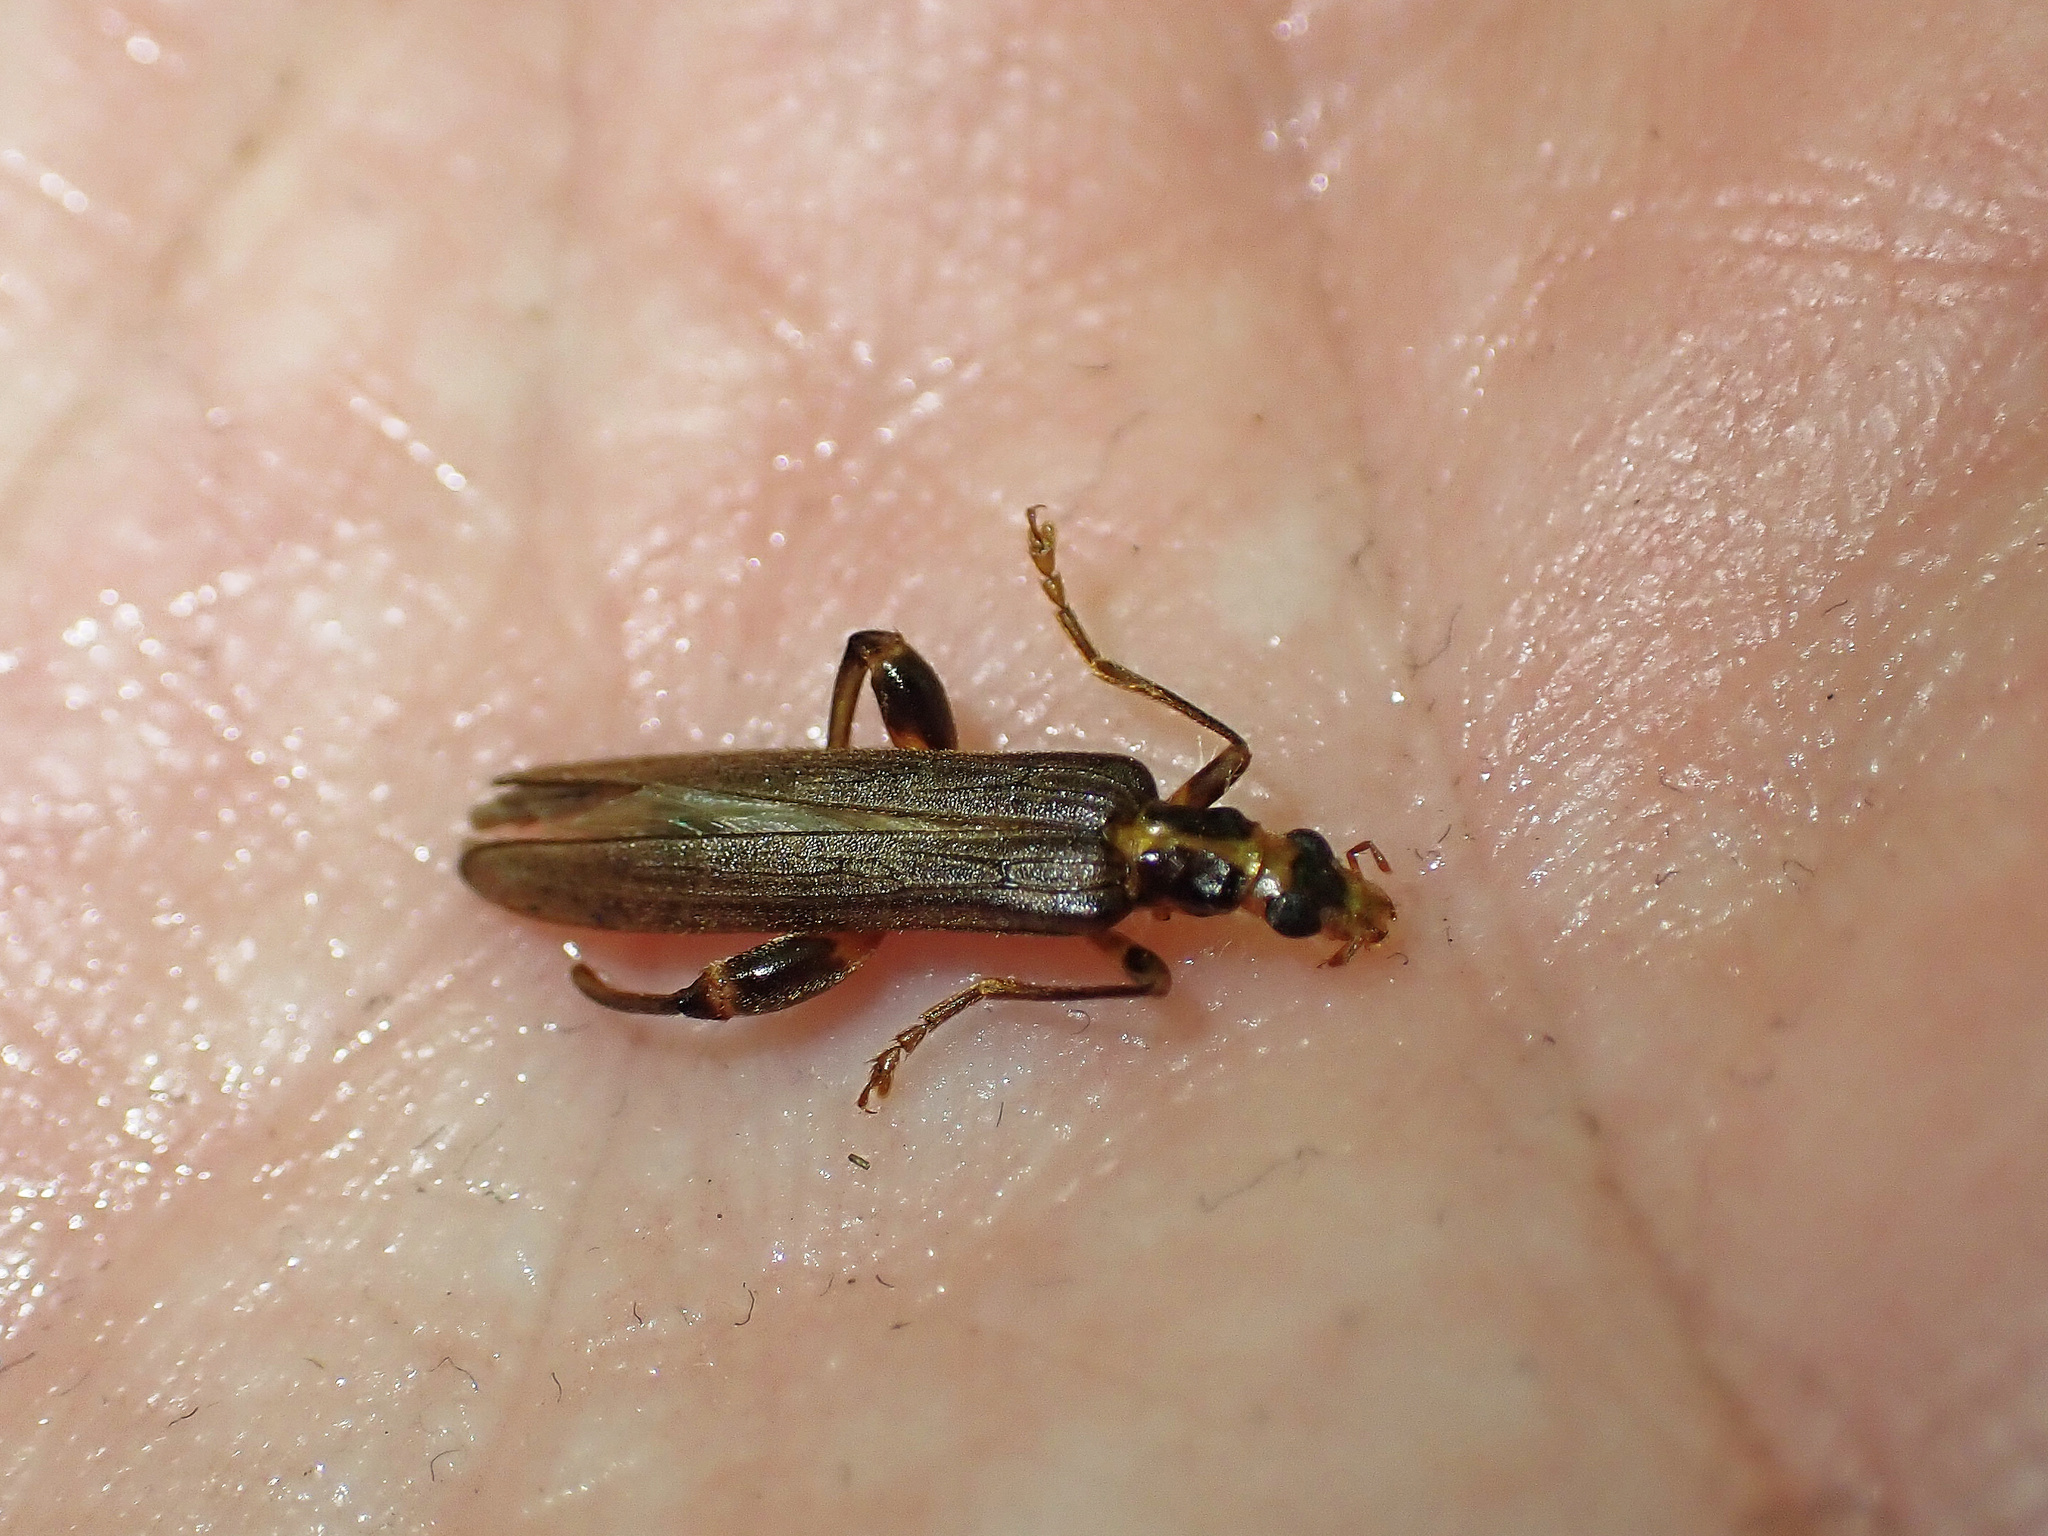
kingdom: Animalia
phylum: Arthropoda
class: Insecta
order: Coleoptera
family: Oedemeridae
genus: Oedemera
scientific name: Oedemera femoralis
